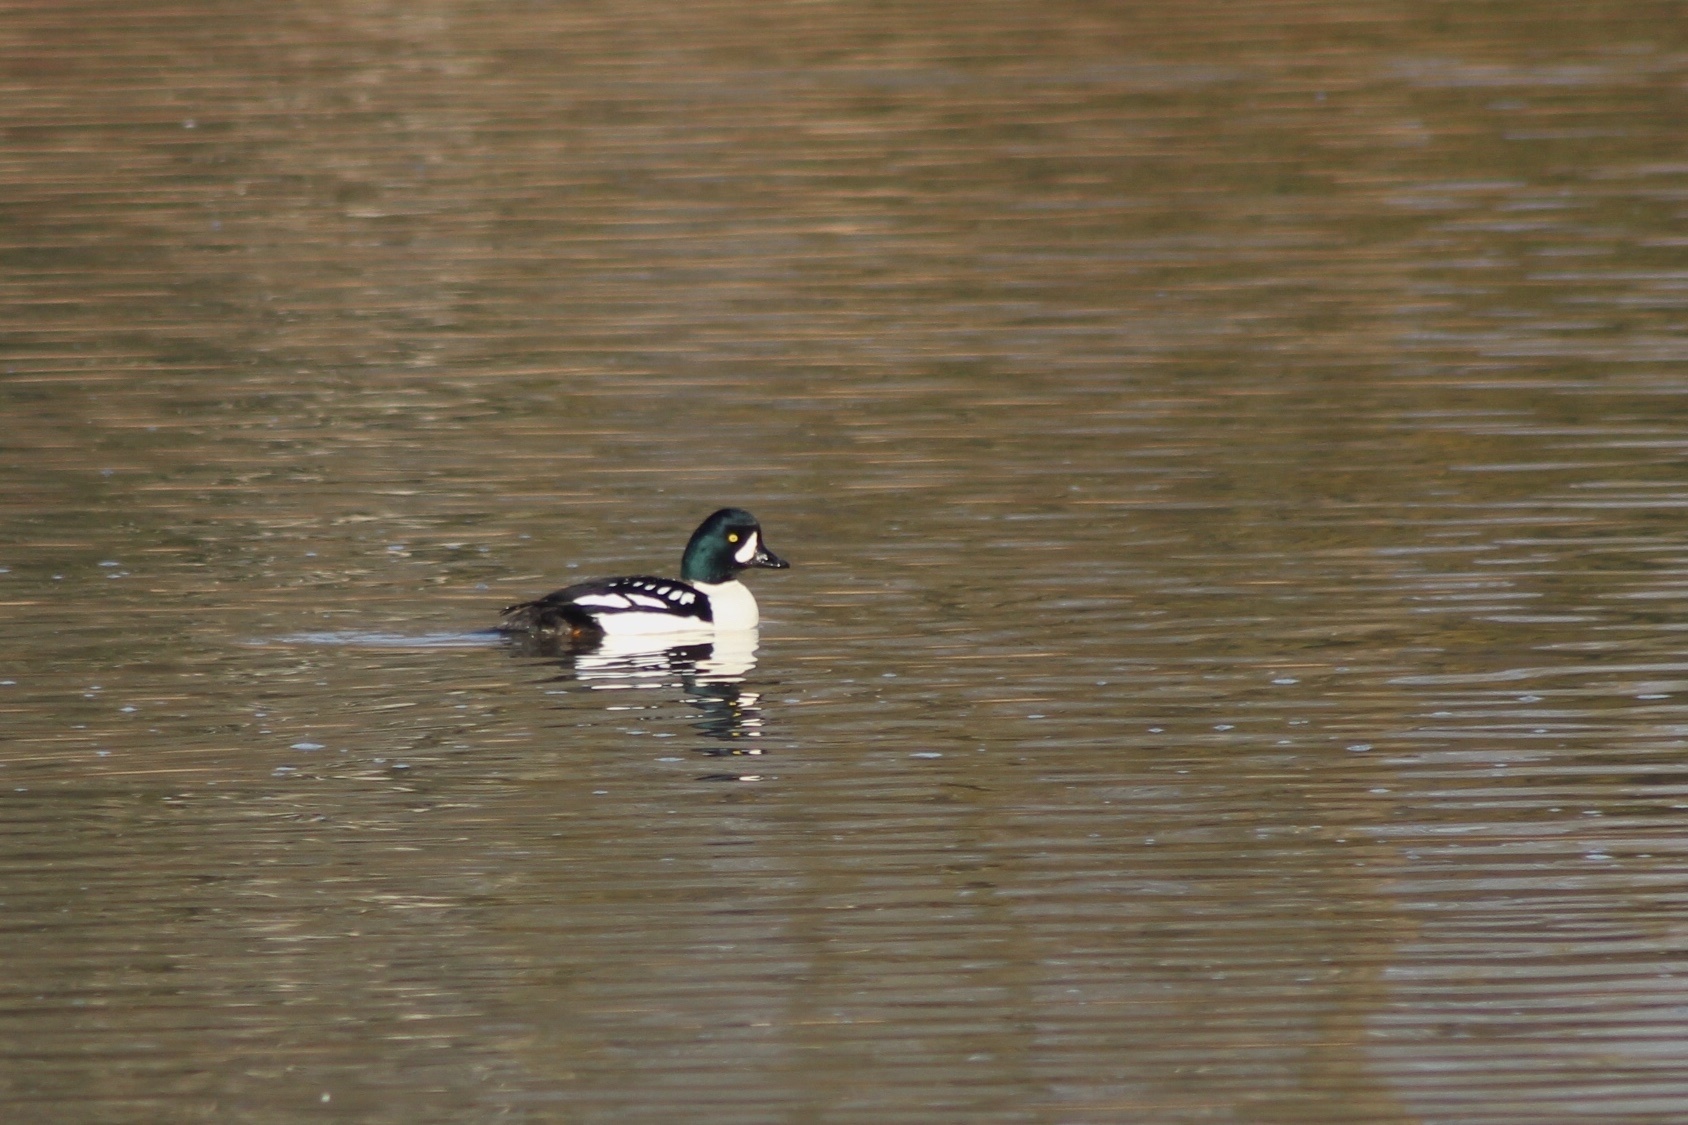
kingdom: Animalia
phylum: Chordata
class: Aves
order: Anseriformes
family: Anatidae
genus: Bucephala
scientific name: Bucephala islandica
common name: Barrow's goldeneye
